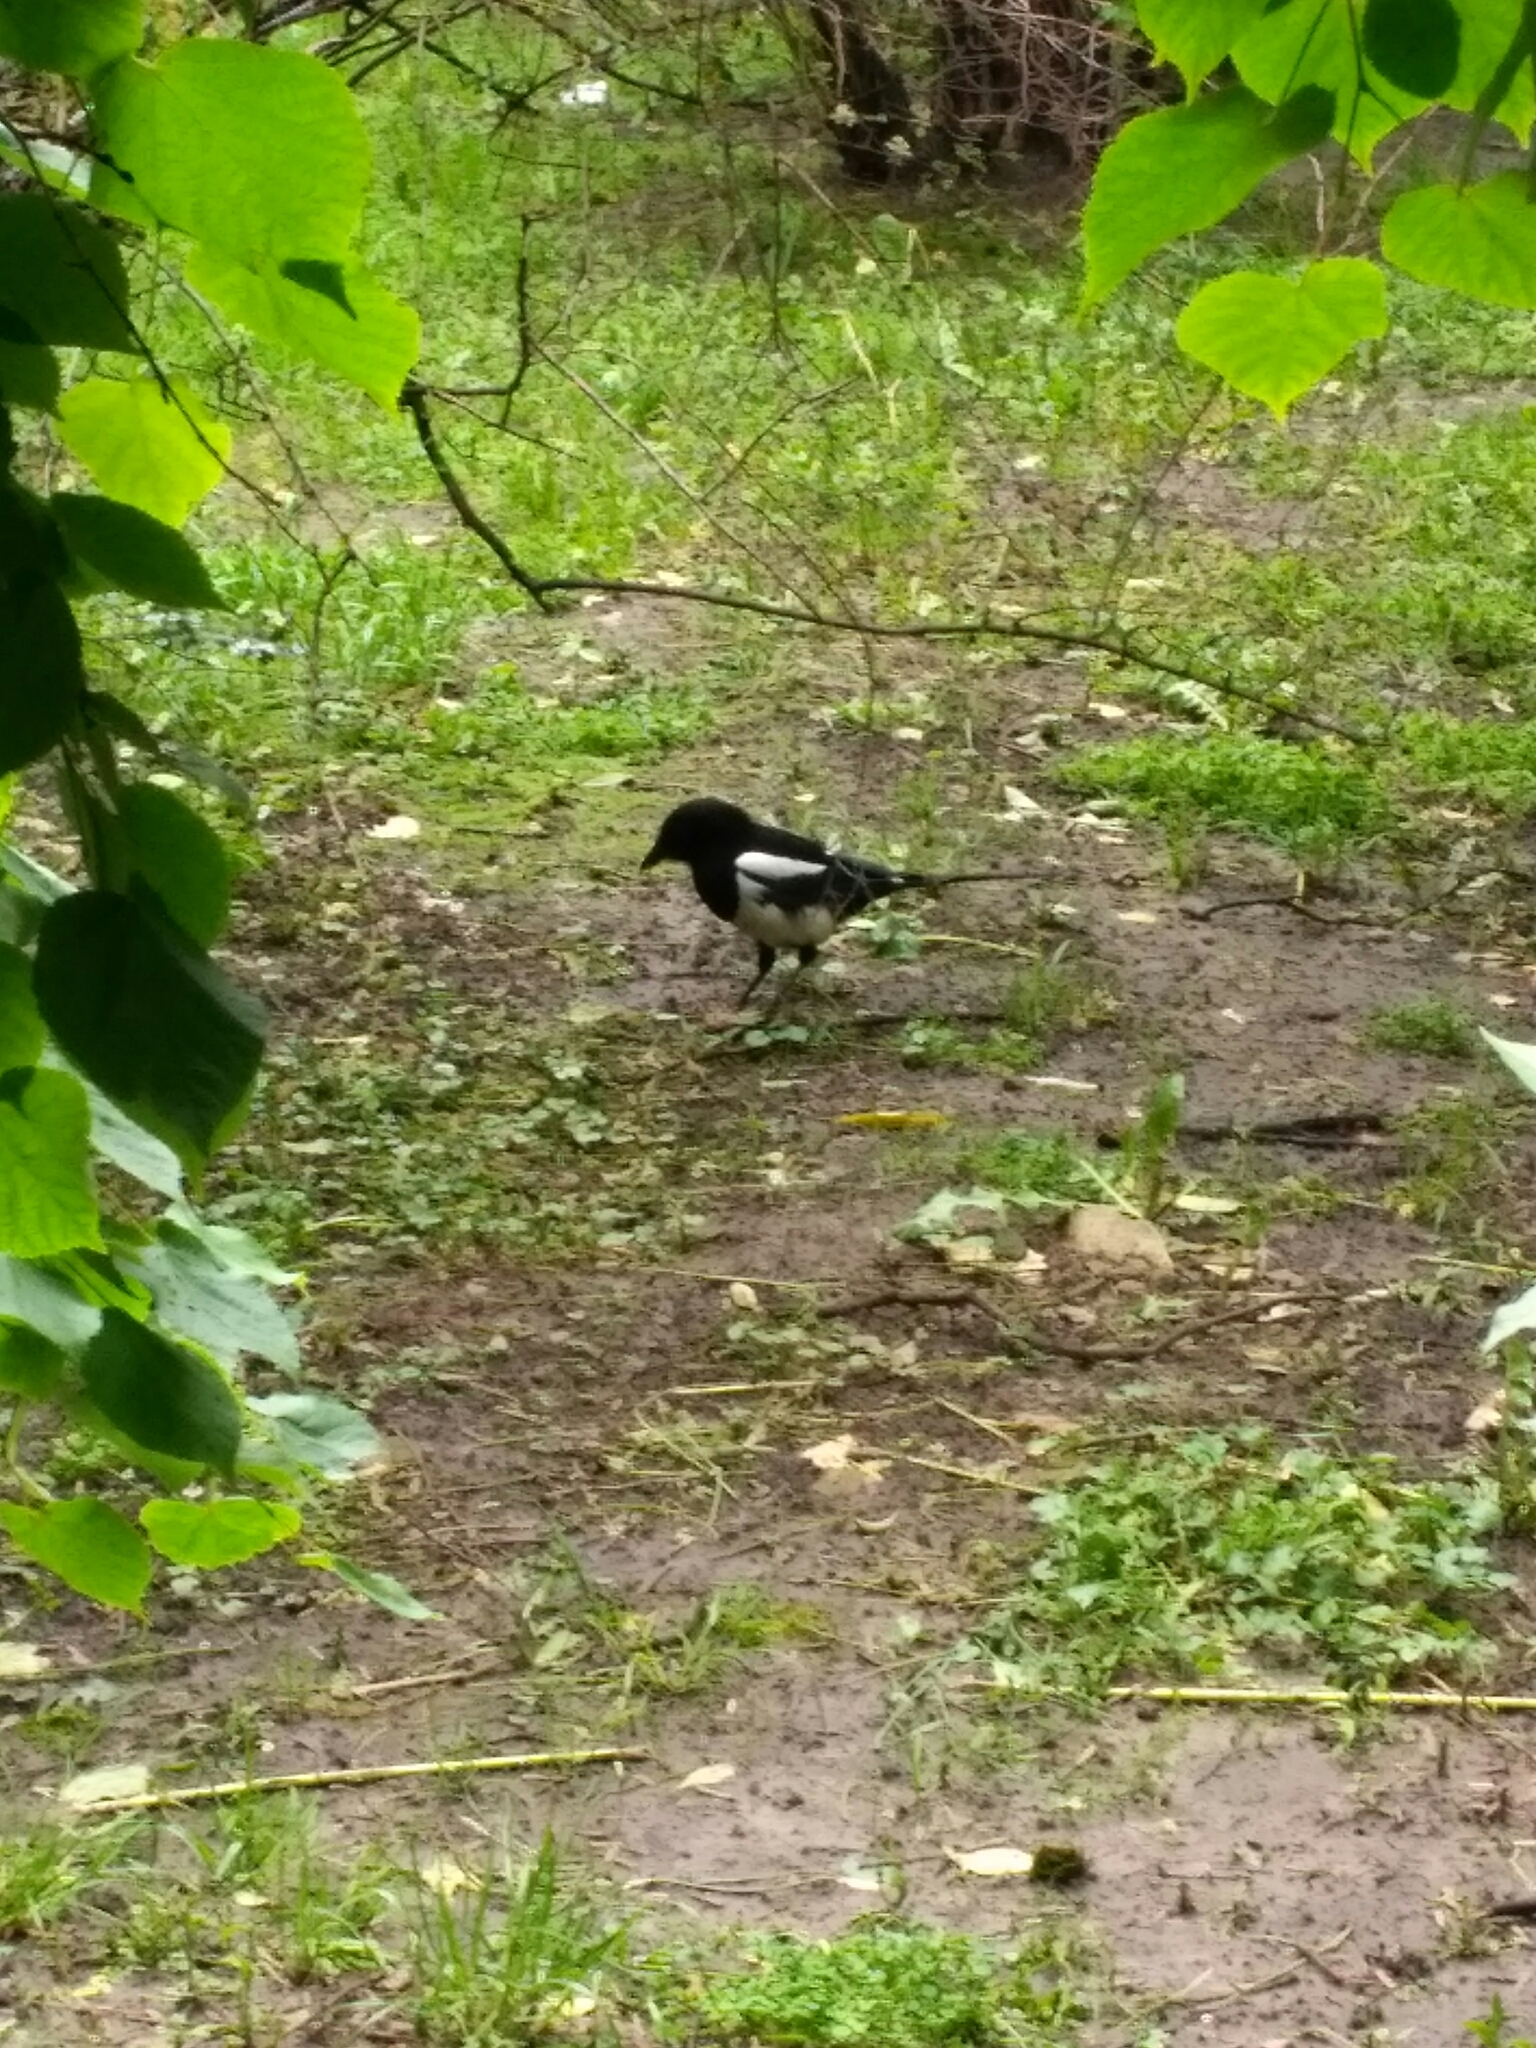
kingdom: Animalia
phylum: Chordata
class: Aves
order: Passeriformes
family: Corvidae
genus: Pica
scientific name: Pica pica
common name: Eurasian magpie
